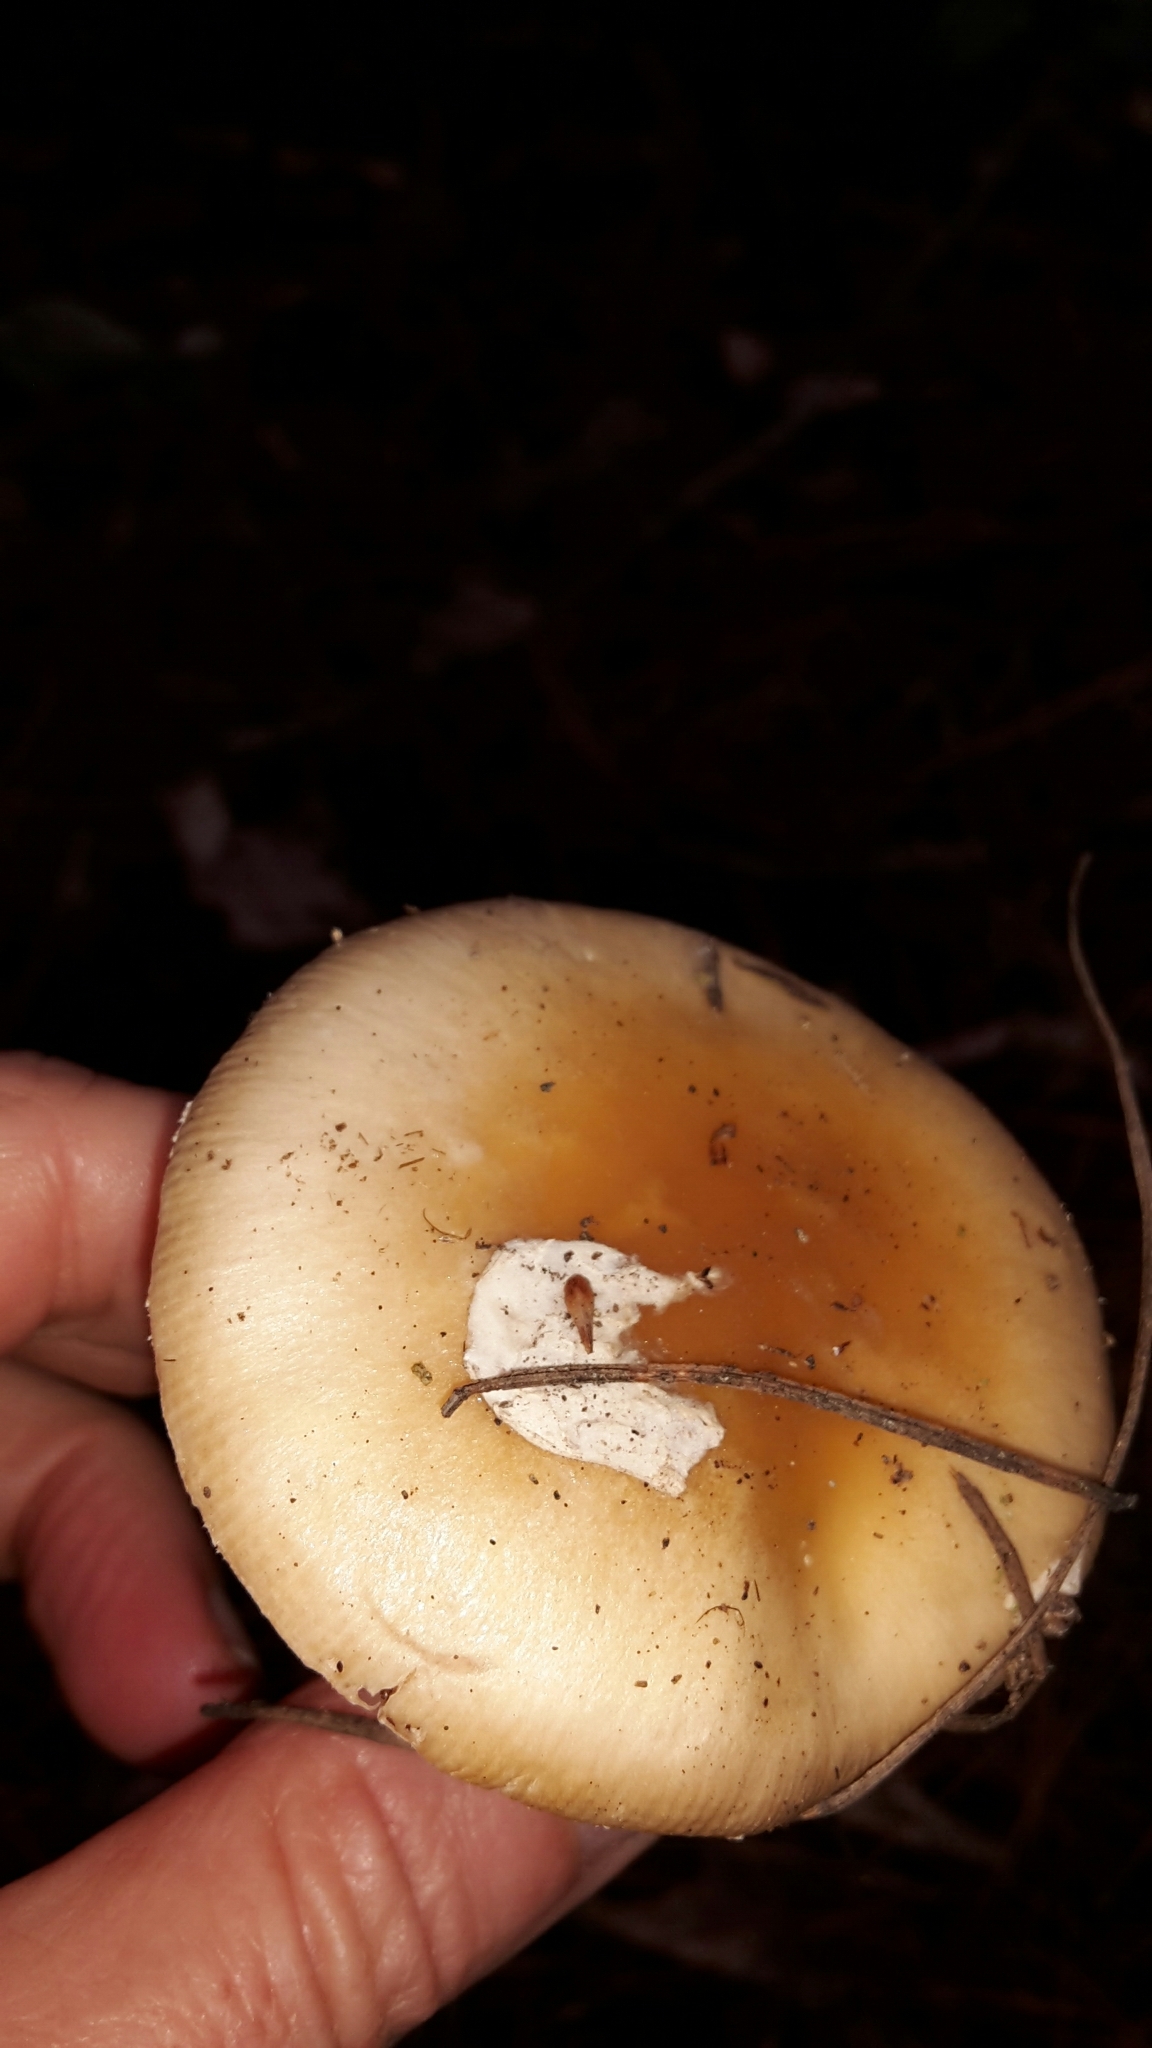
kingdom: Fungi
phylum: Basidiomycota
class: Agaricomycetes
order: Agaricales
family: Amanitaceae
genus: Amanita
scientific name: Amanita gemmata
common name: Jewelled amanita
